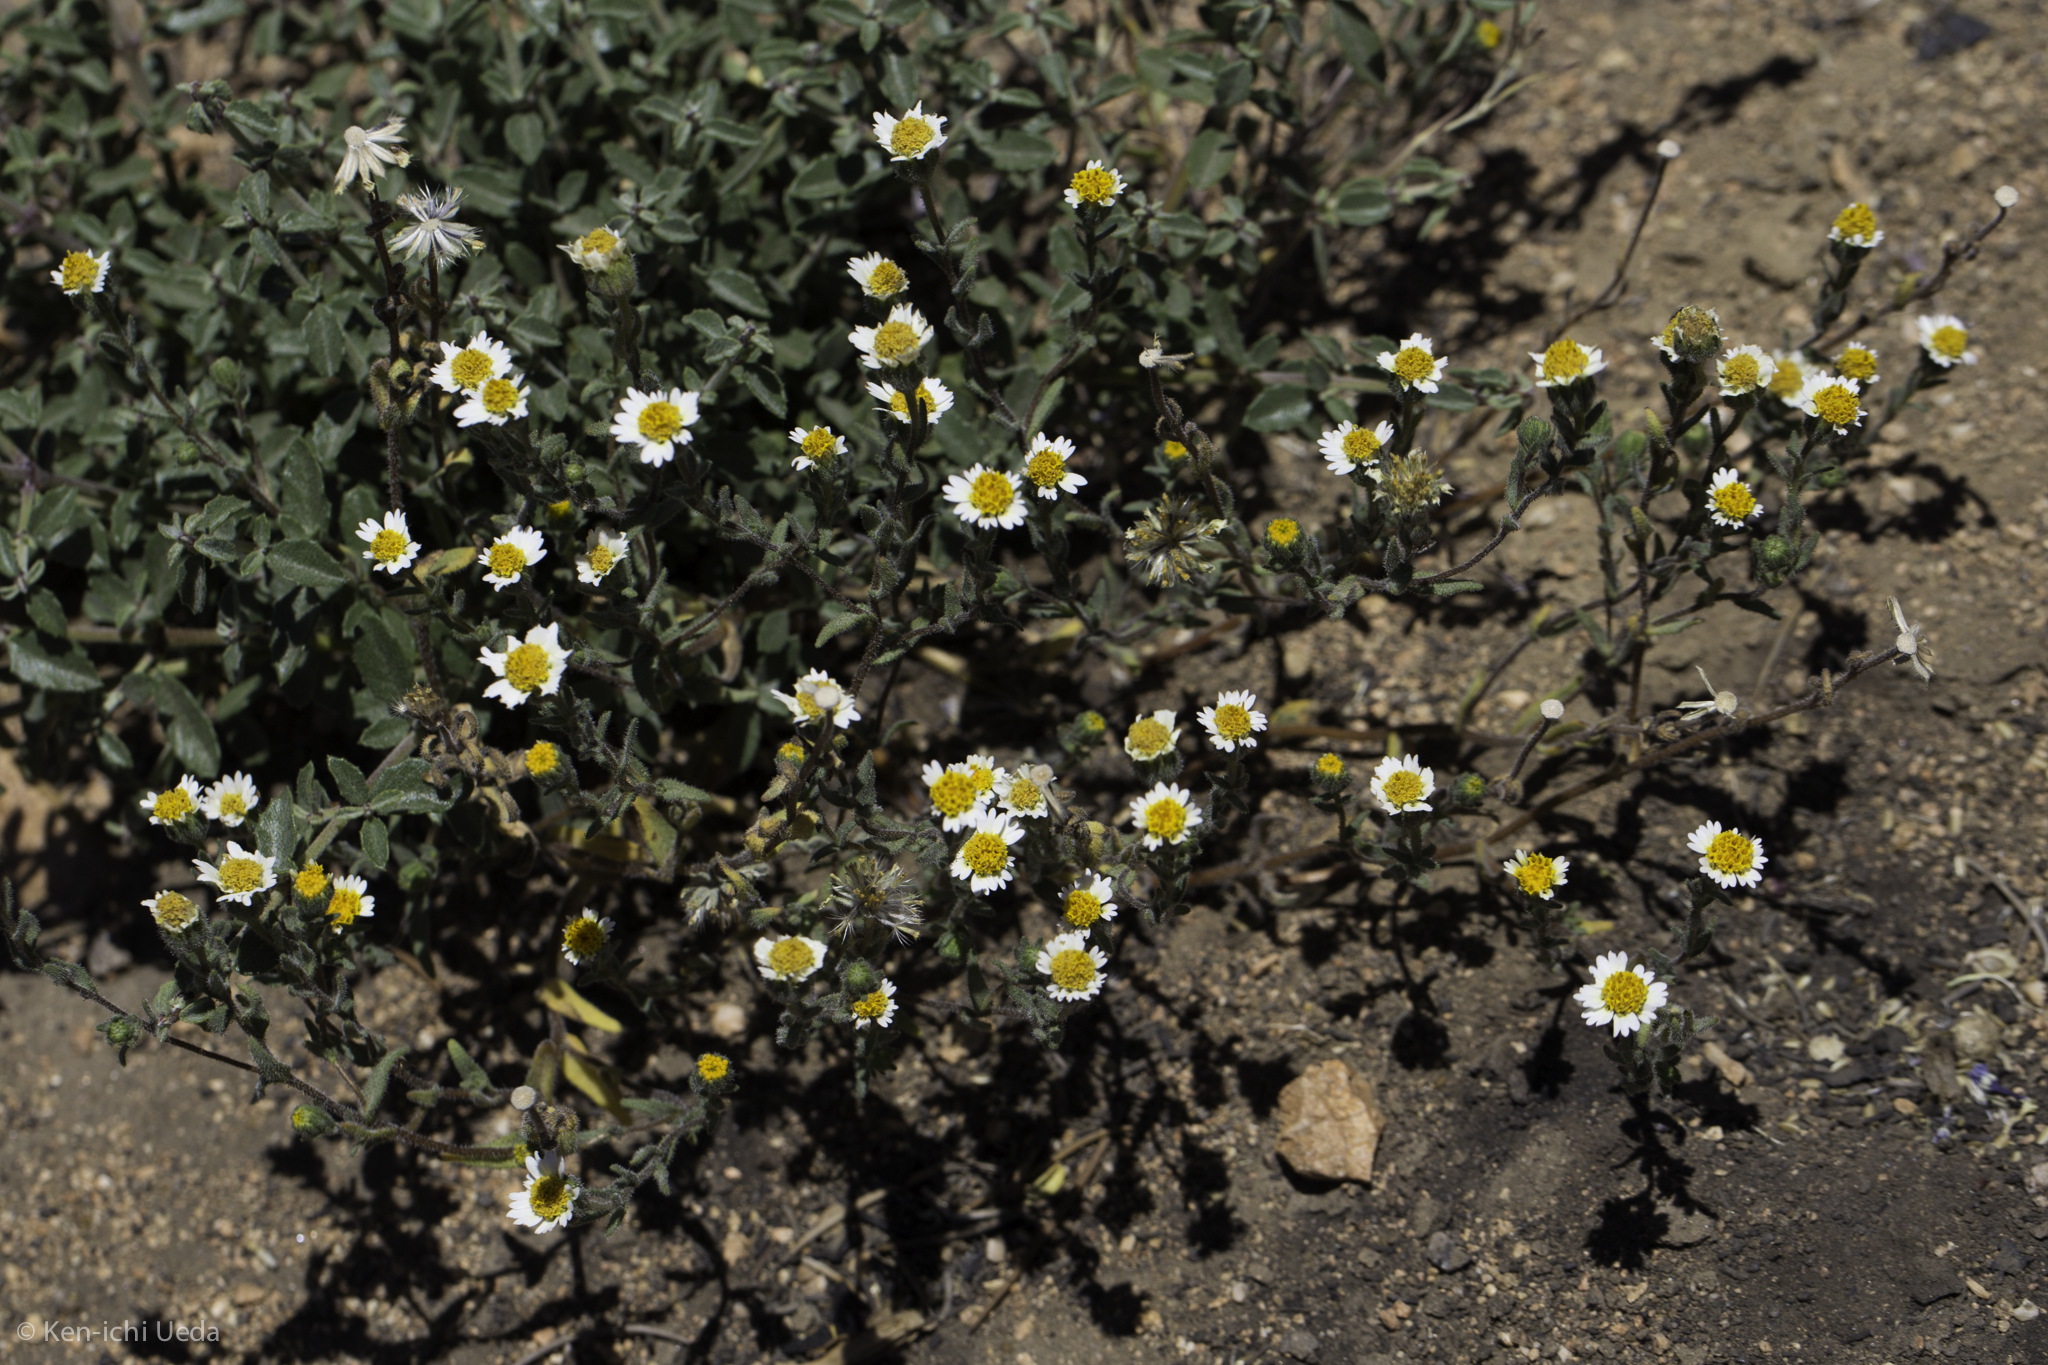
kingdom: Plantae
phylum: Tracheophyta
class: Magnoliopsida
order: Asterales
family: Asteraceae
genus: Layia
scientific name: Layia glandulosa
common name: White layia
